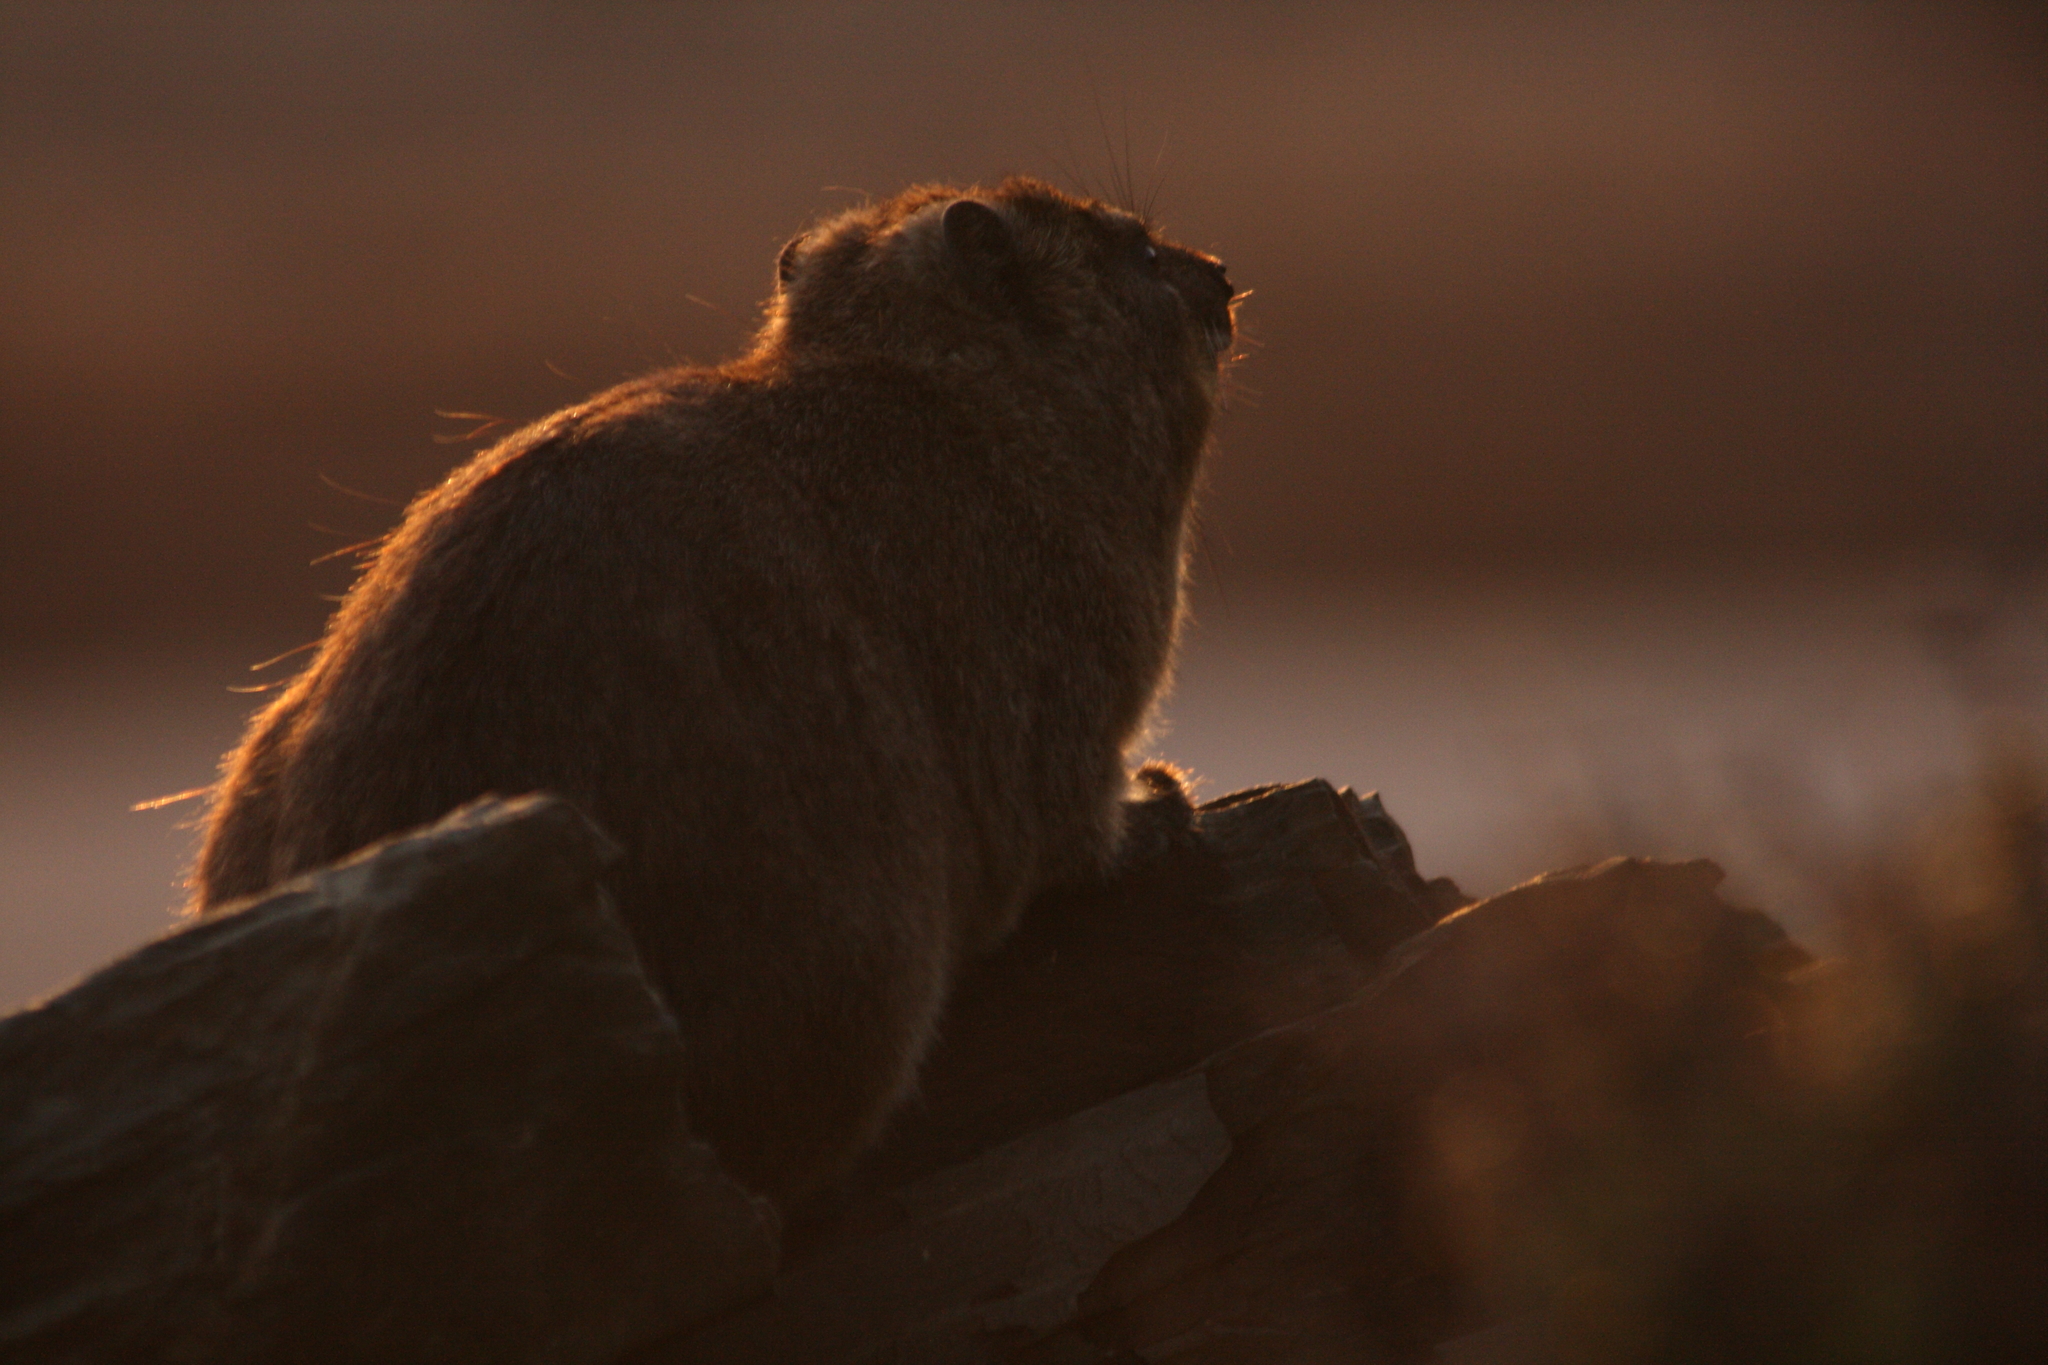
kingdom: Animalia
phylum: Chordata
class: Mammalia
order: Hyracoidea
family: Procaviidae
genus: Procavia
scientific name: Procavia capensis
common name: Rock hyrax
